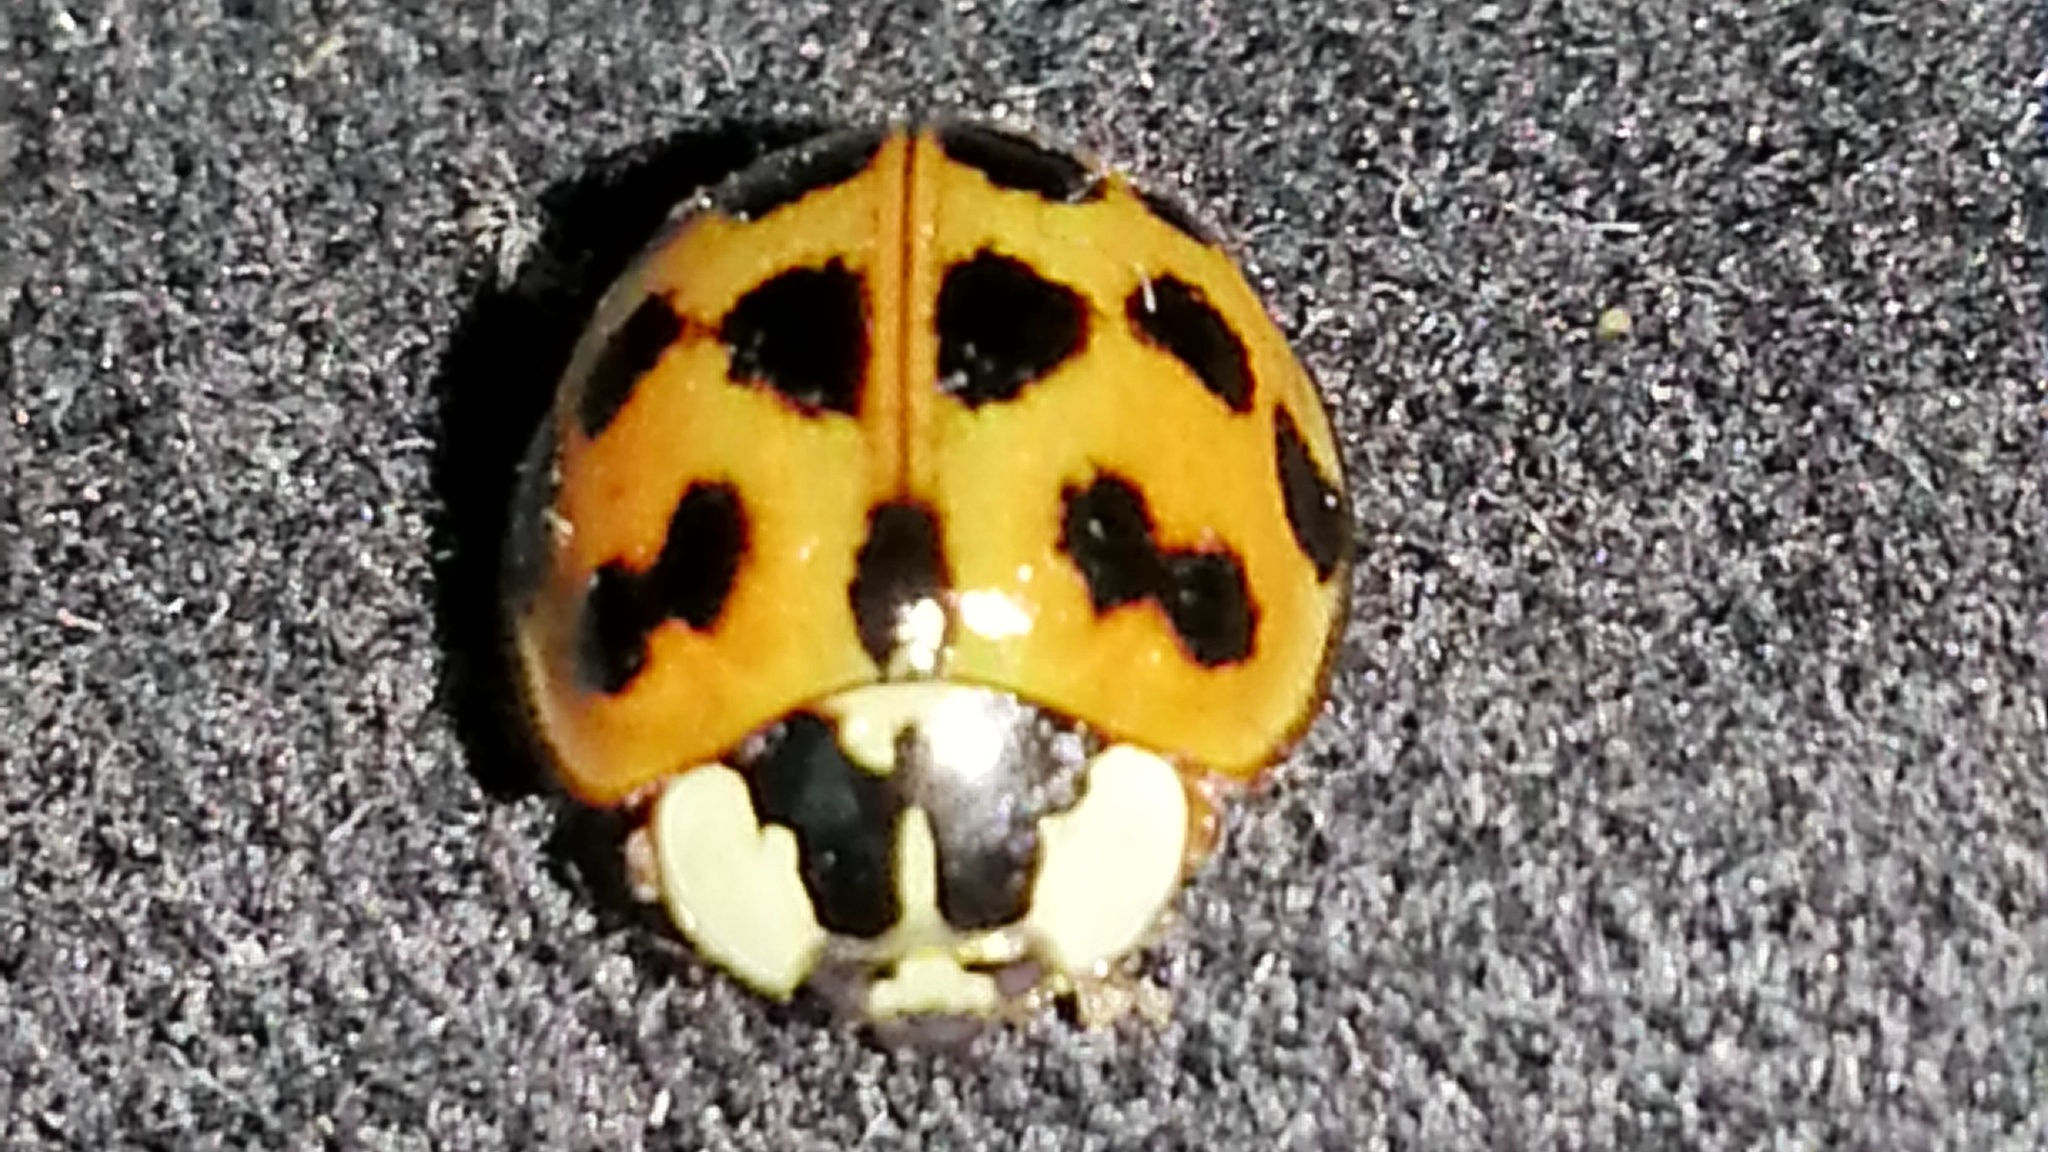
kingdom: Animalia
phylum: Arthropoda
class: Insecta
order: Coleoptera
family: Coccinellidae
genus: Harmonia
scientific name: Harmonia axyridis
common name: Harlequin ladybird
